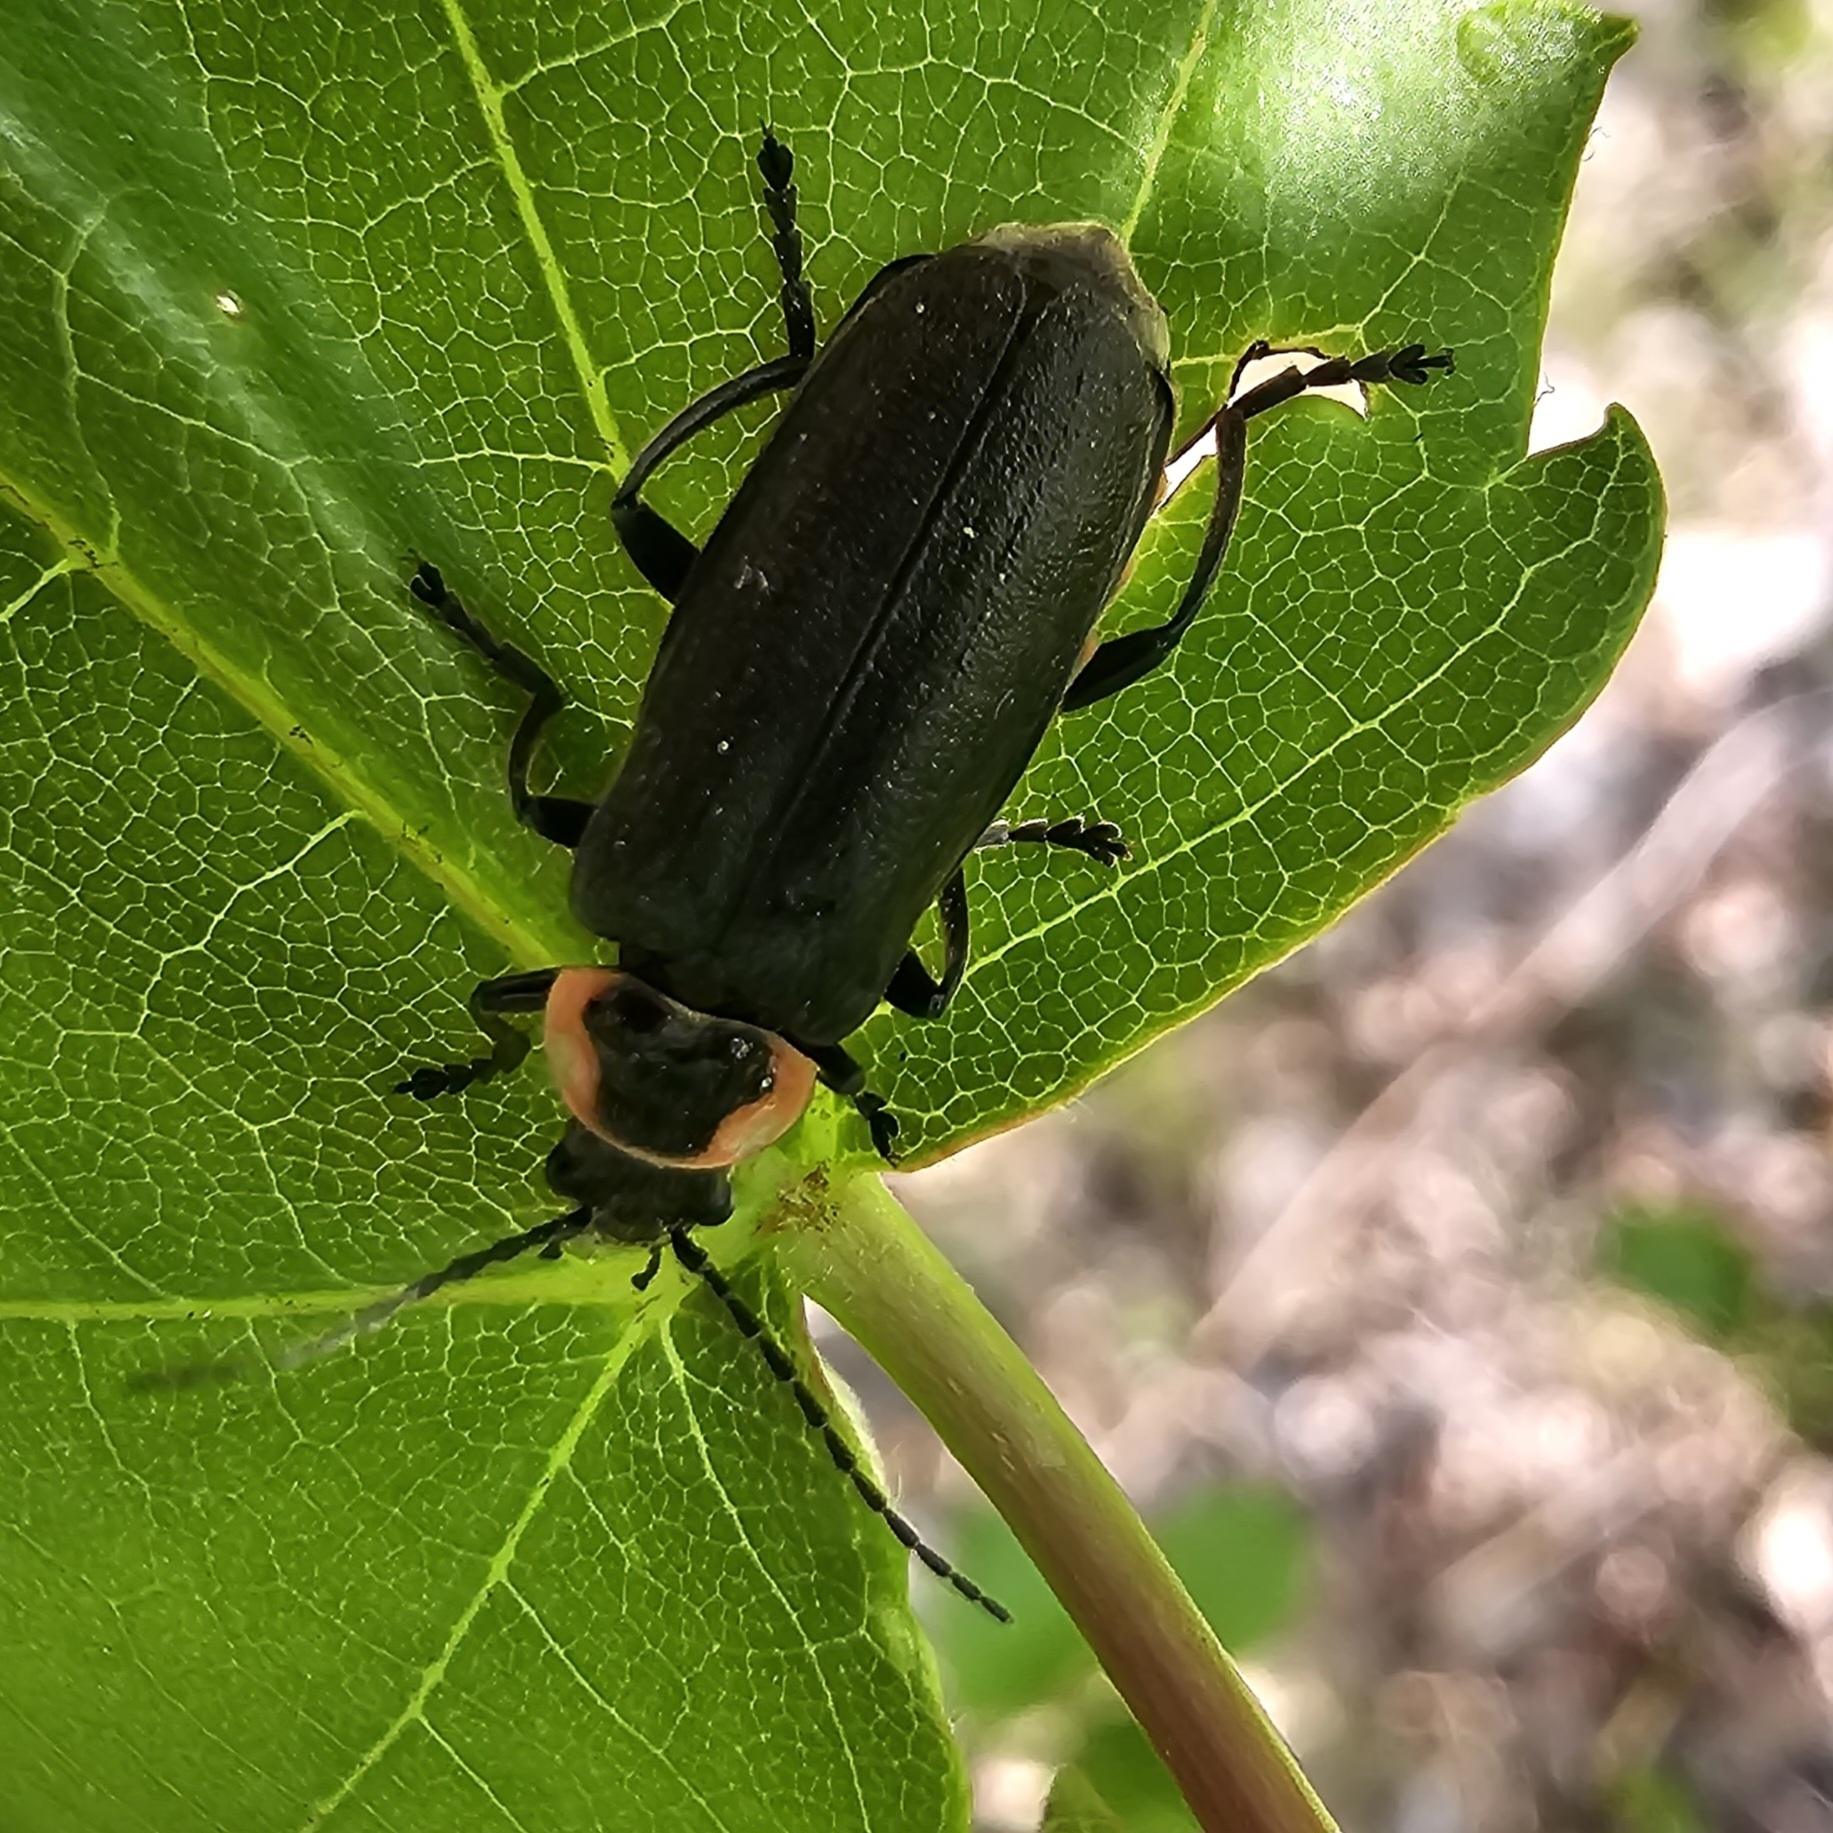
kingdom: Animalia
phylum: Arthropoda
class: Insecta
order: Coleoptera
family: Cantharidae
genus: Atalantycha
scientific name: Atalantycha neglecta
